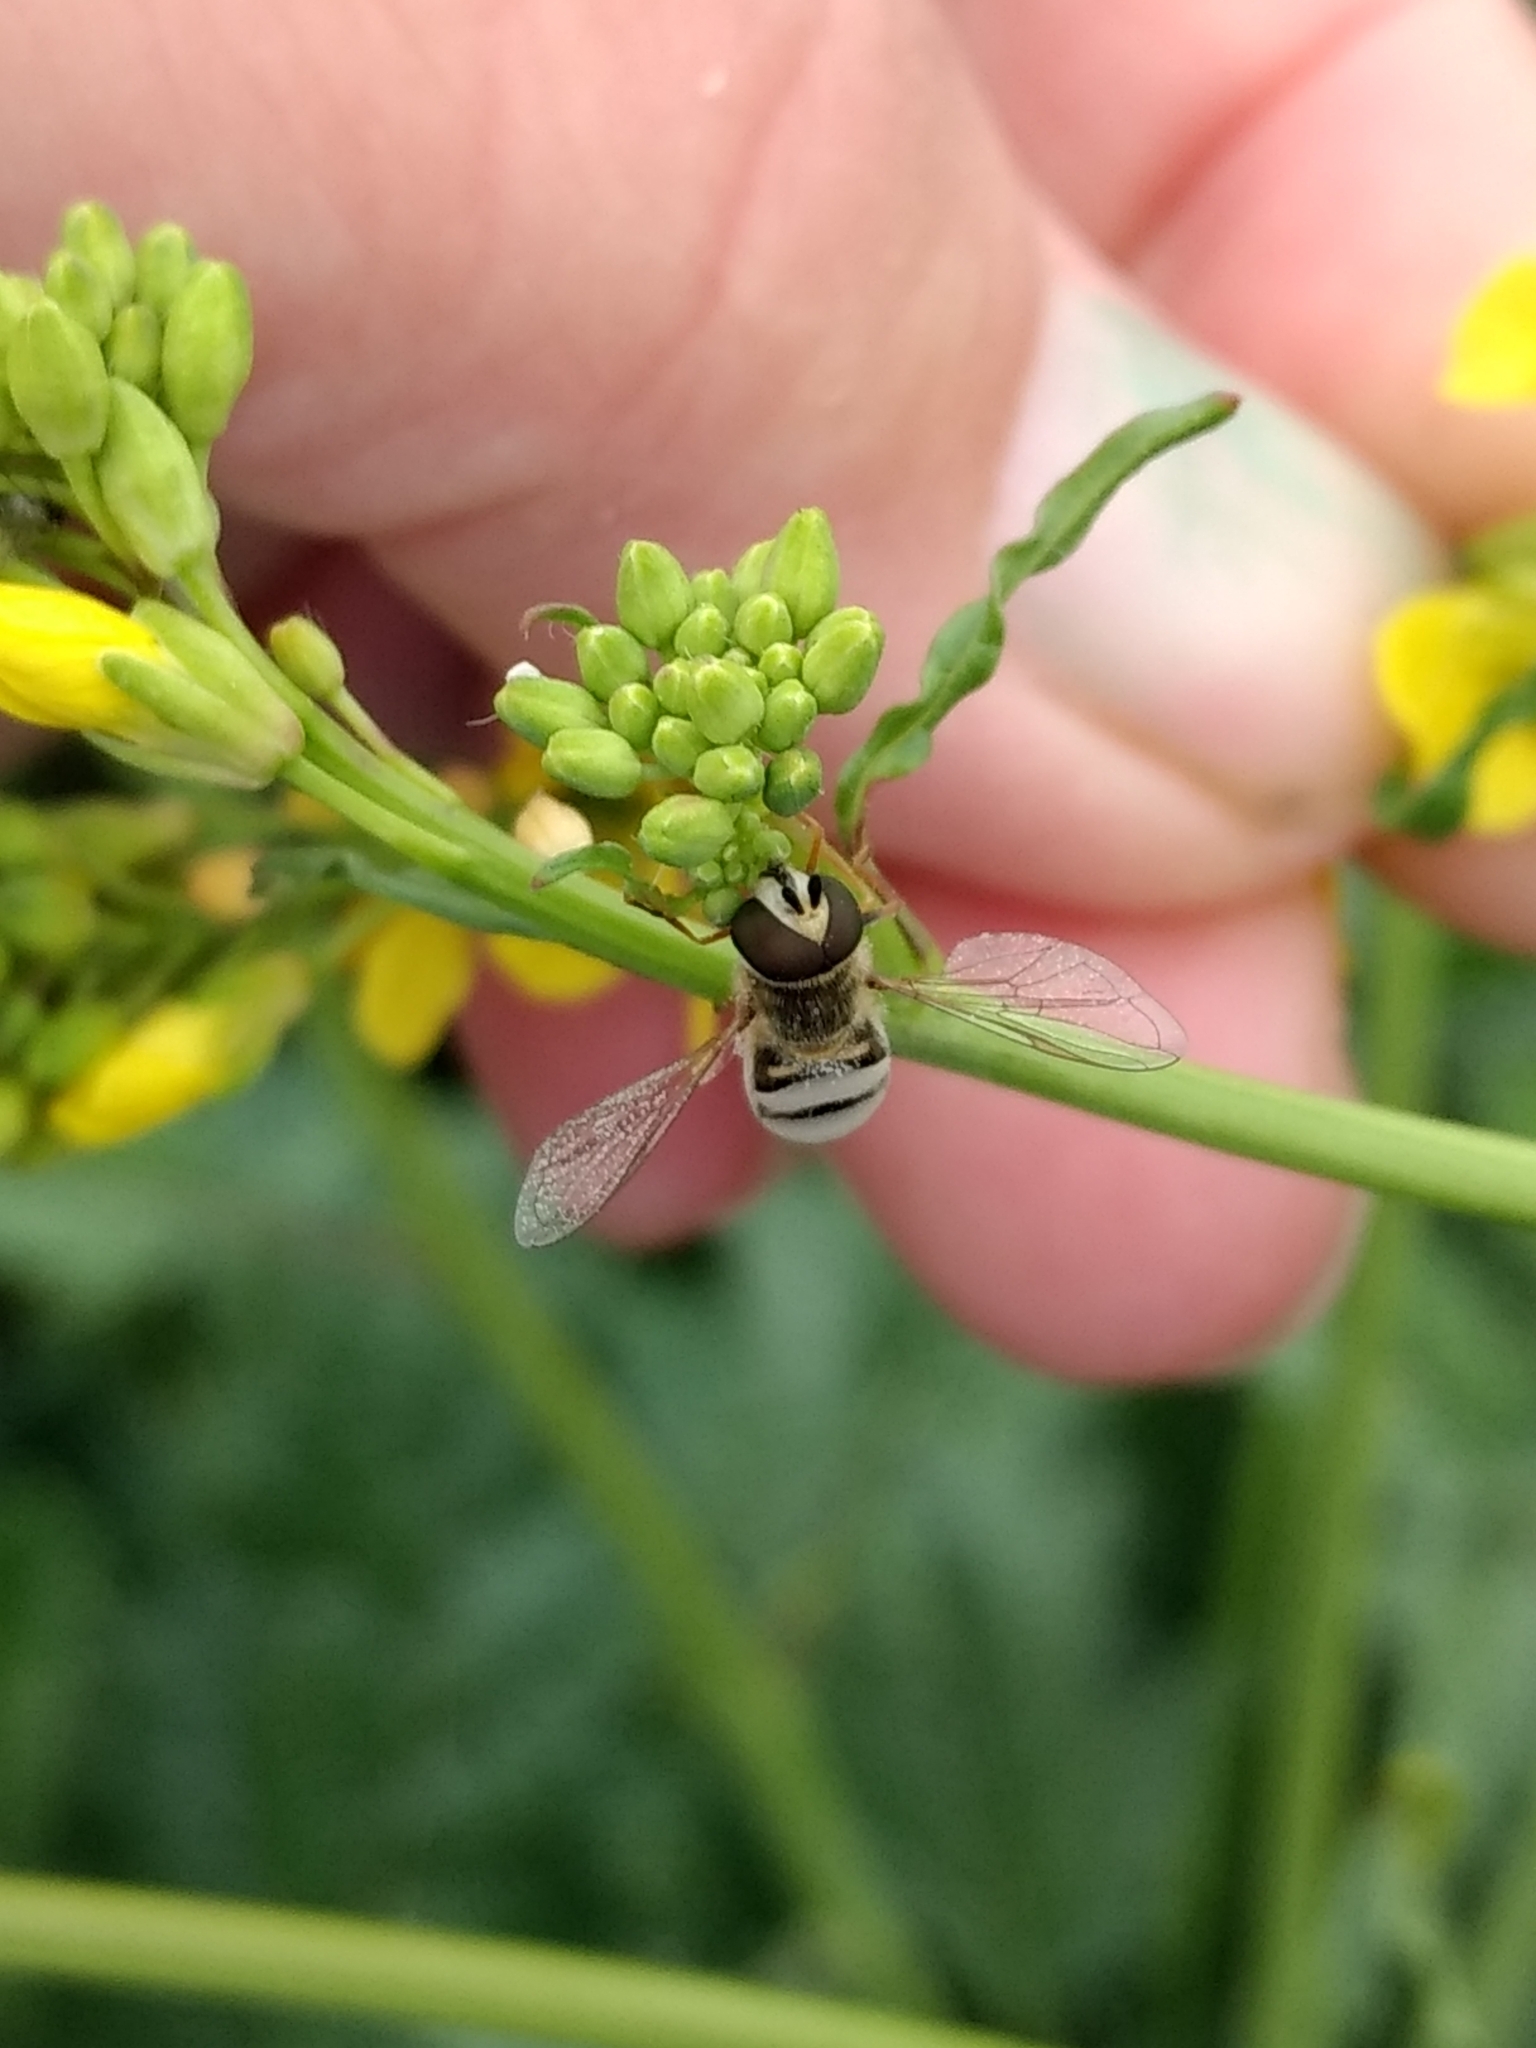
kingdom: Animalia
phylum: Arthropoda
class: Insecta
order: Diptera
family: Syrphidae
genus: Eupeodes
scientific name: Eupeodes volucris
